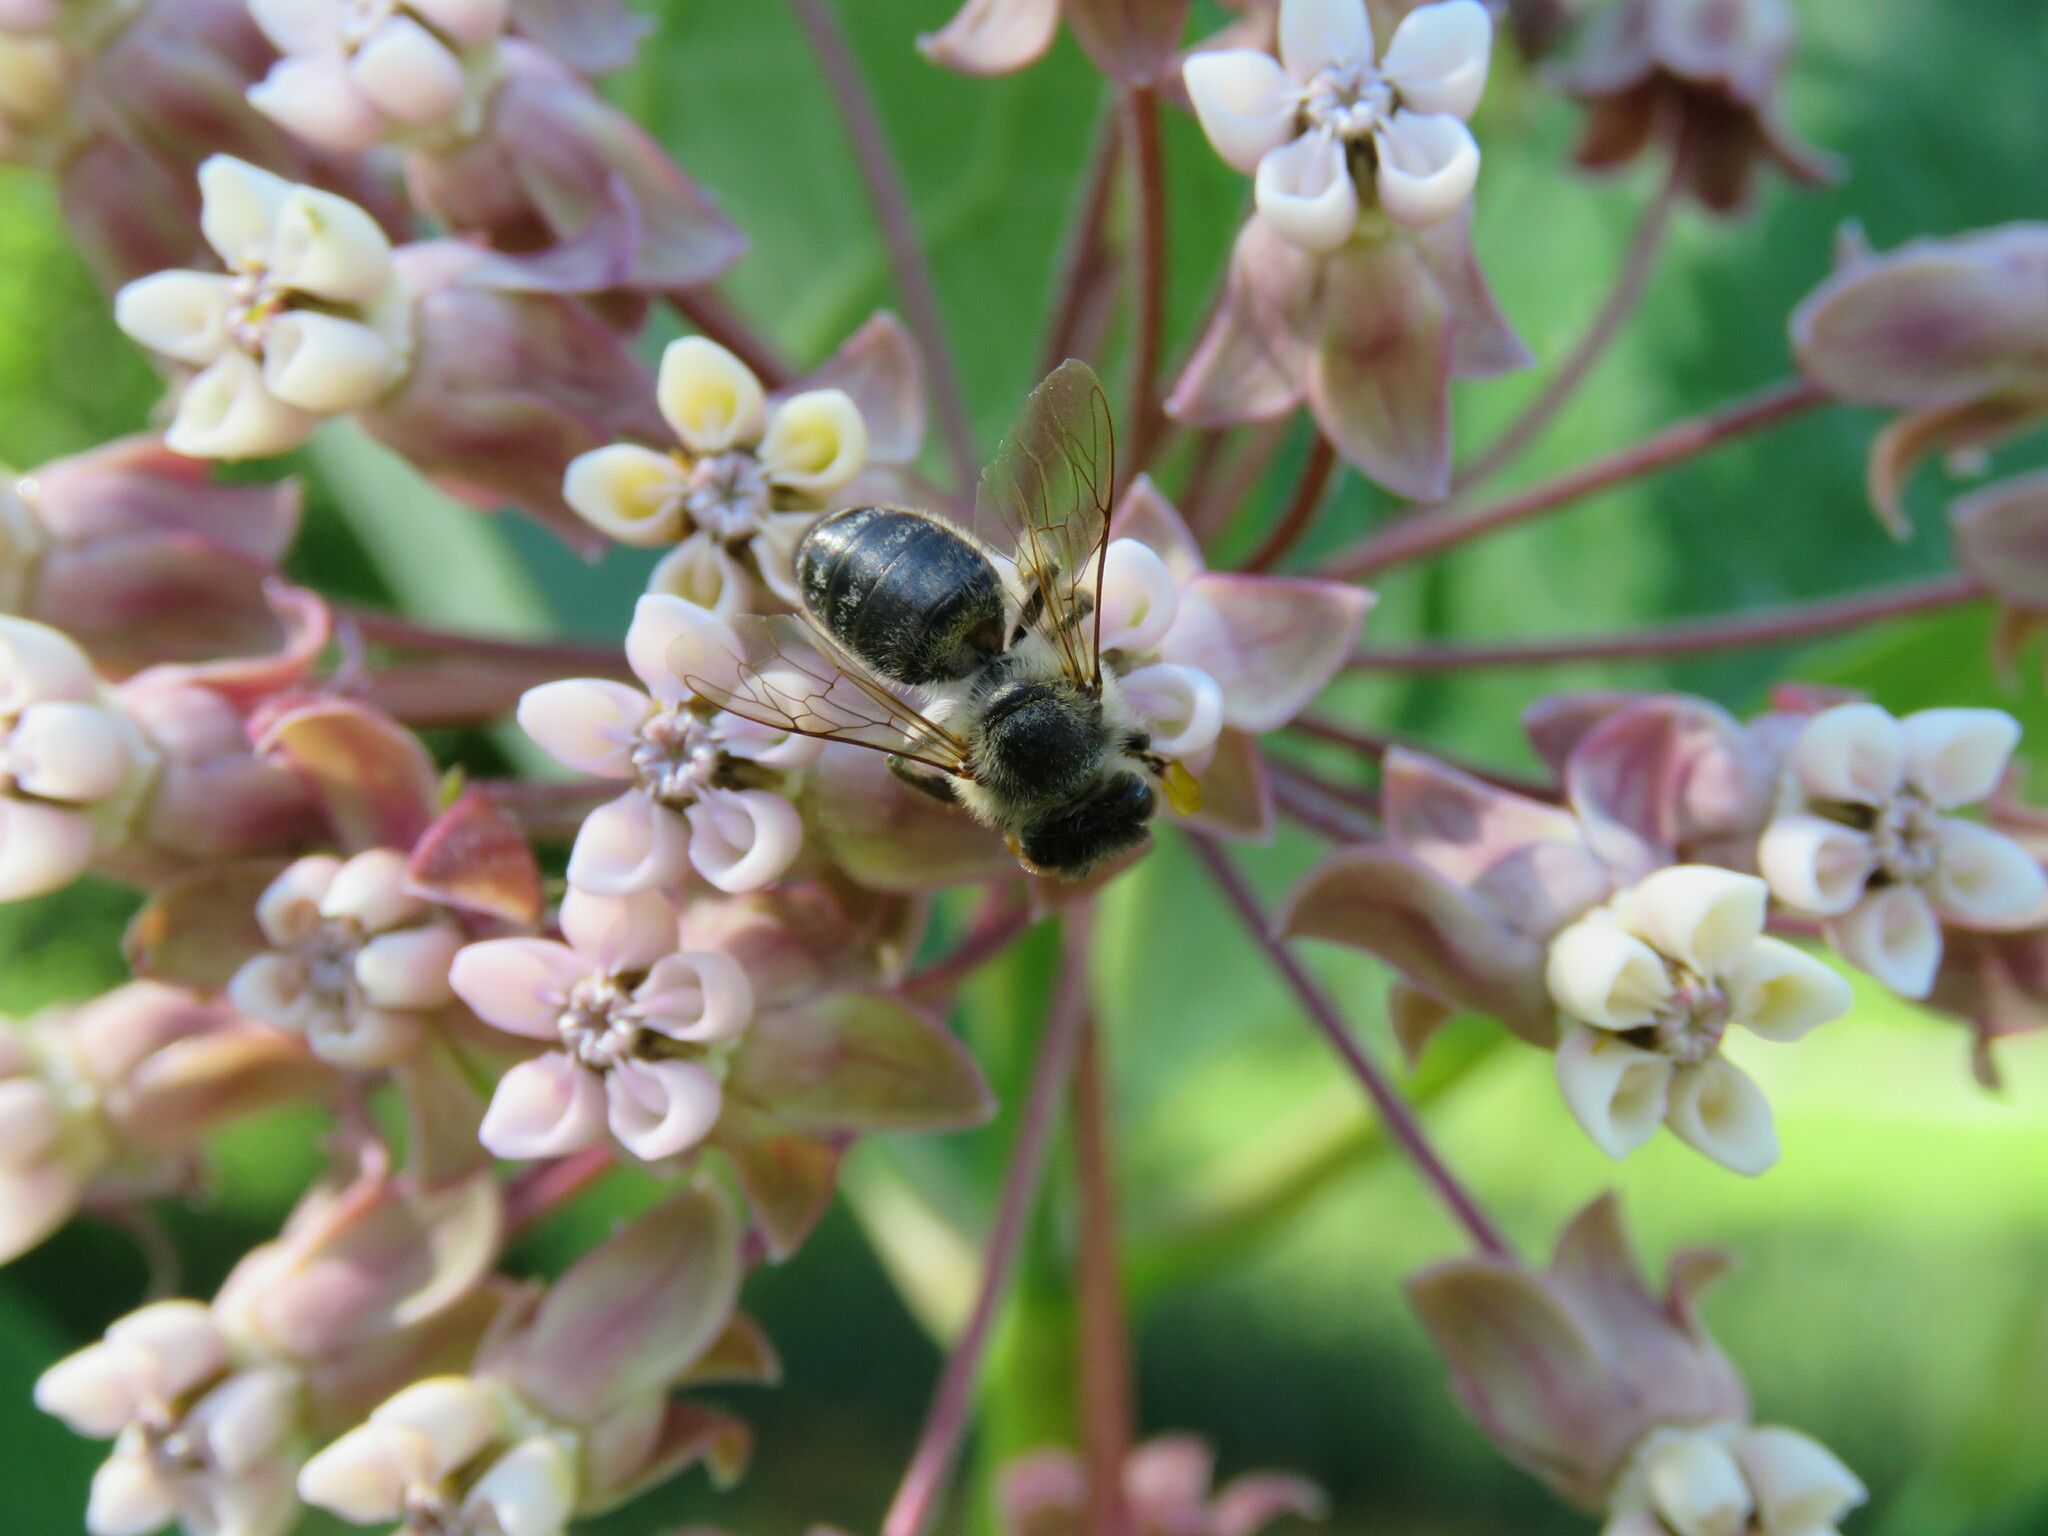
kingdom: Animalia
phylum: Arthropoda
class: Insecta
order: Hymenoptera
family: Apidae
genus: Apis
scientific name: Apis mellifera
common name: Honey bee
